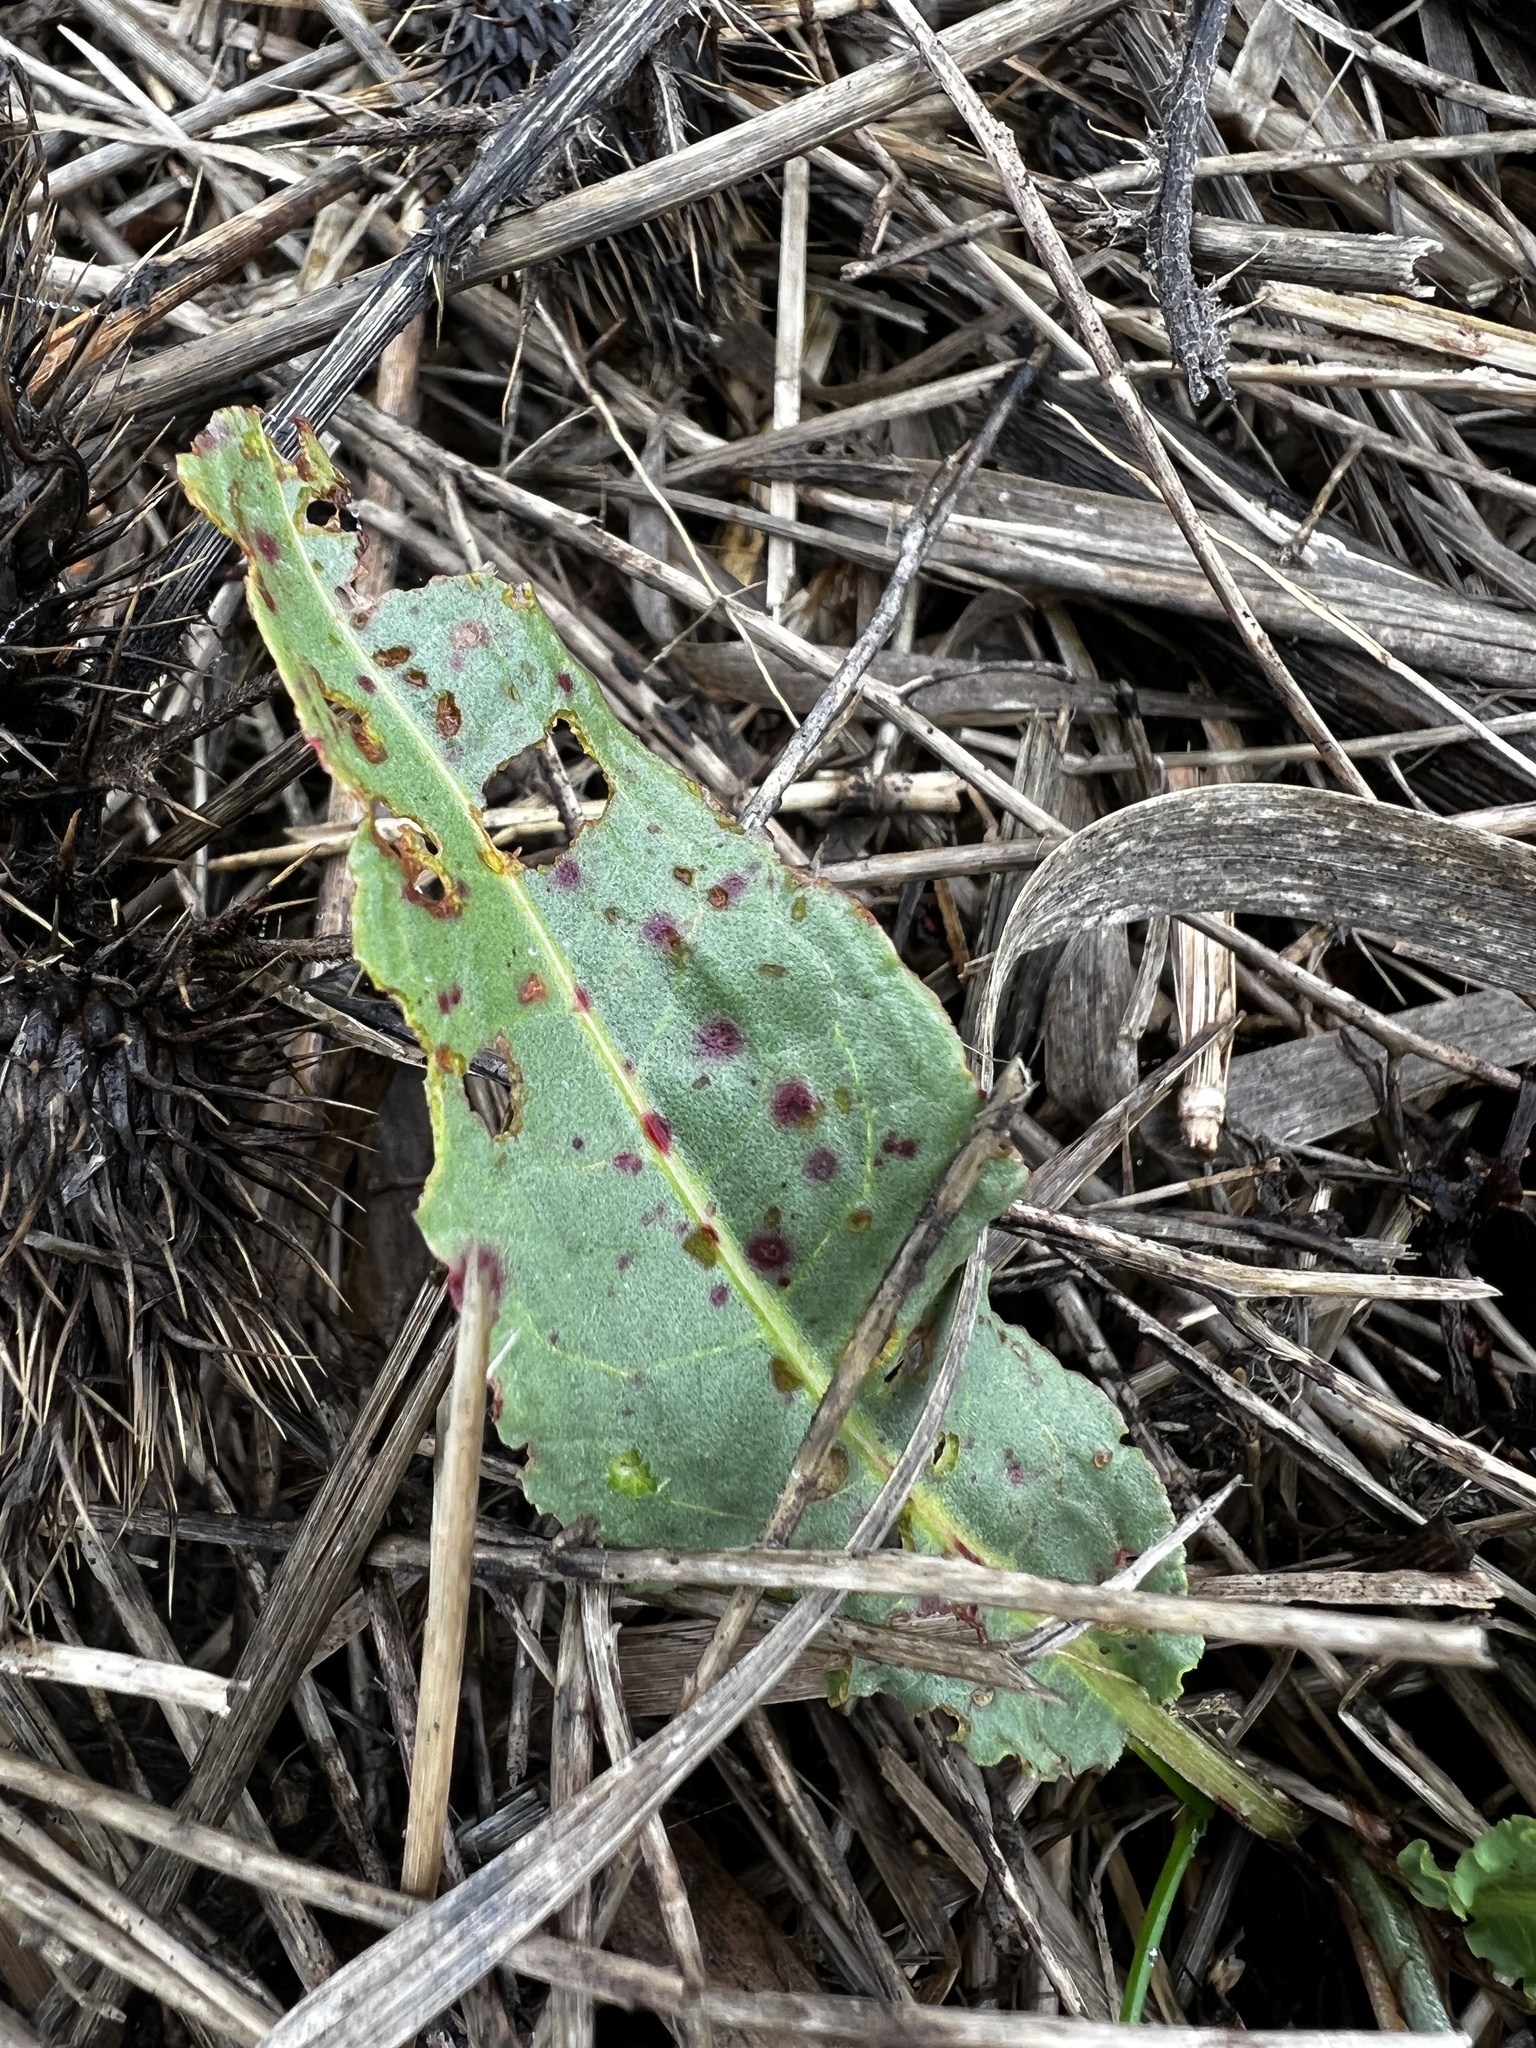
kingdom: Fungi
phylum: Ascomycota
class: Dothideomycetes
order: Mycosphaerellales
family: Mycosphaerellaceae
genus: Ramularia
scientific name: Ramularia rubella
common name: Red dock spot
